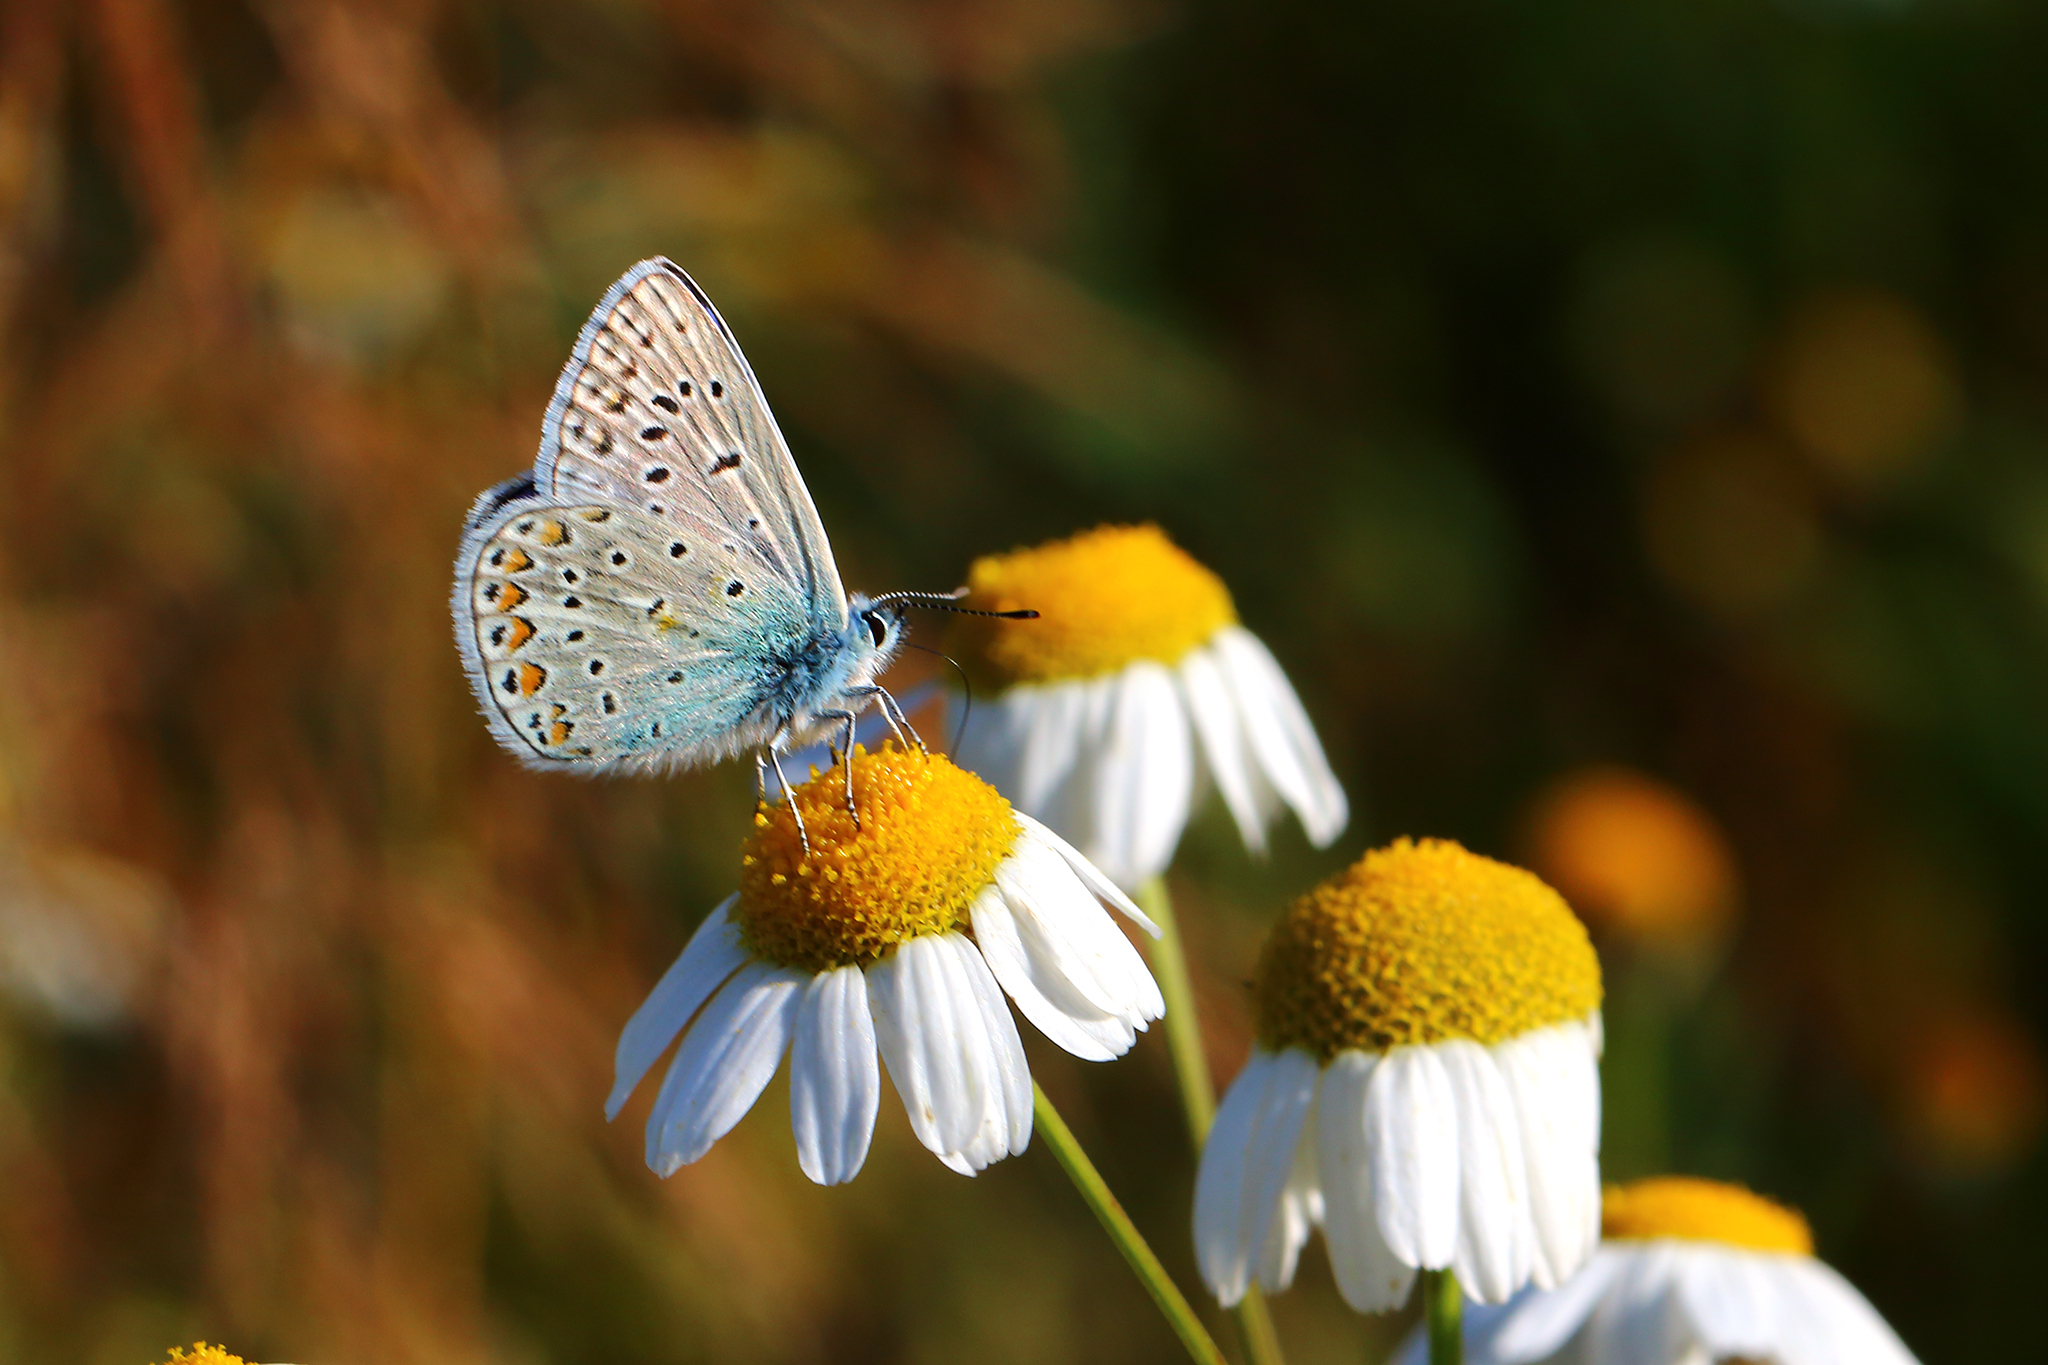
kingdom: Animalia
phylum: Arthropoda
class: Insecta
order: Lepidoptera
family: Lycaenidae
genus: Polyommatus
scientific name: Polyommatus icarus
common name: Common blue
